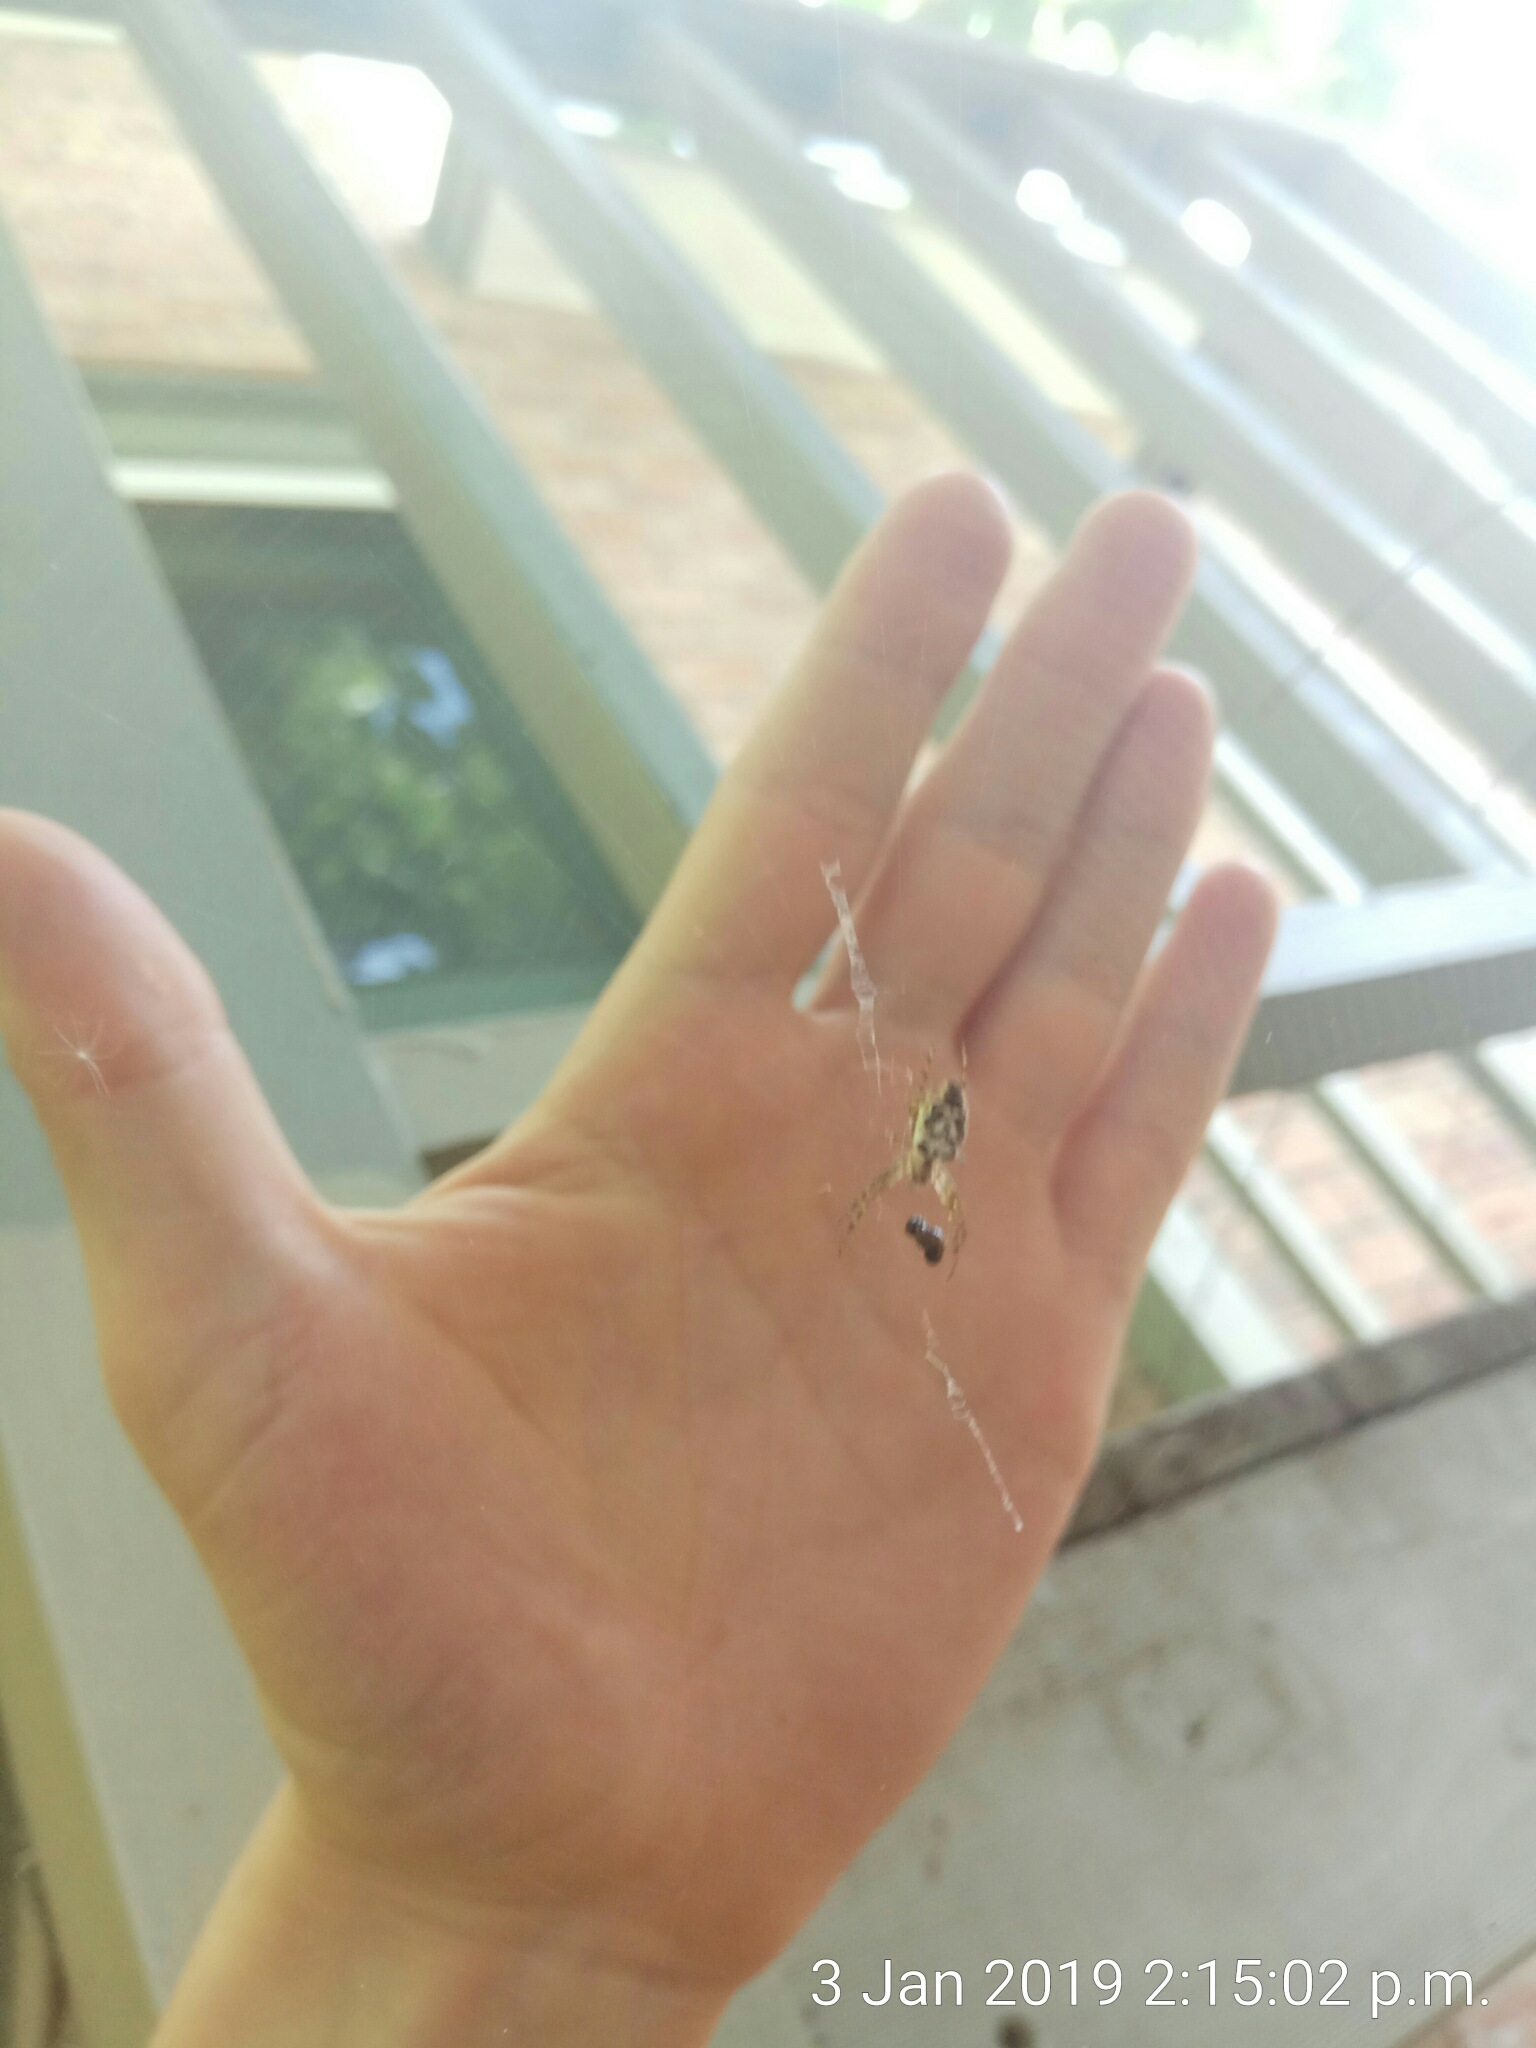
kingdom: Animalia
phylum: Arthropoda
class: Arachnida
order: Araneae
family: Araneidae
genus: Plebs
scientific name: Plebs eburnus
